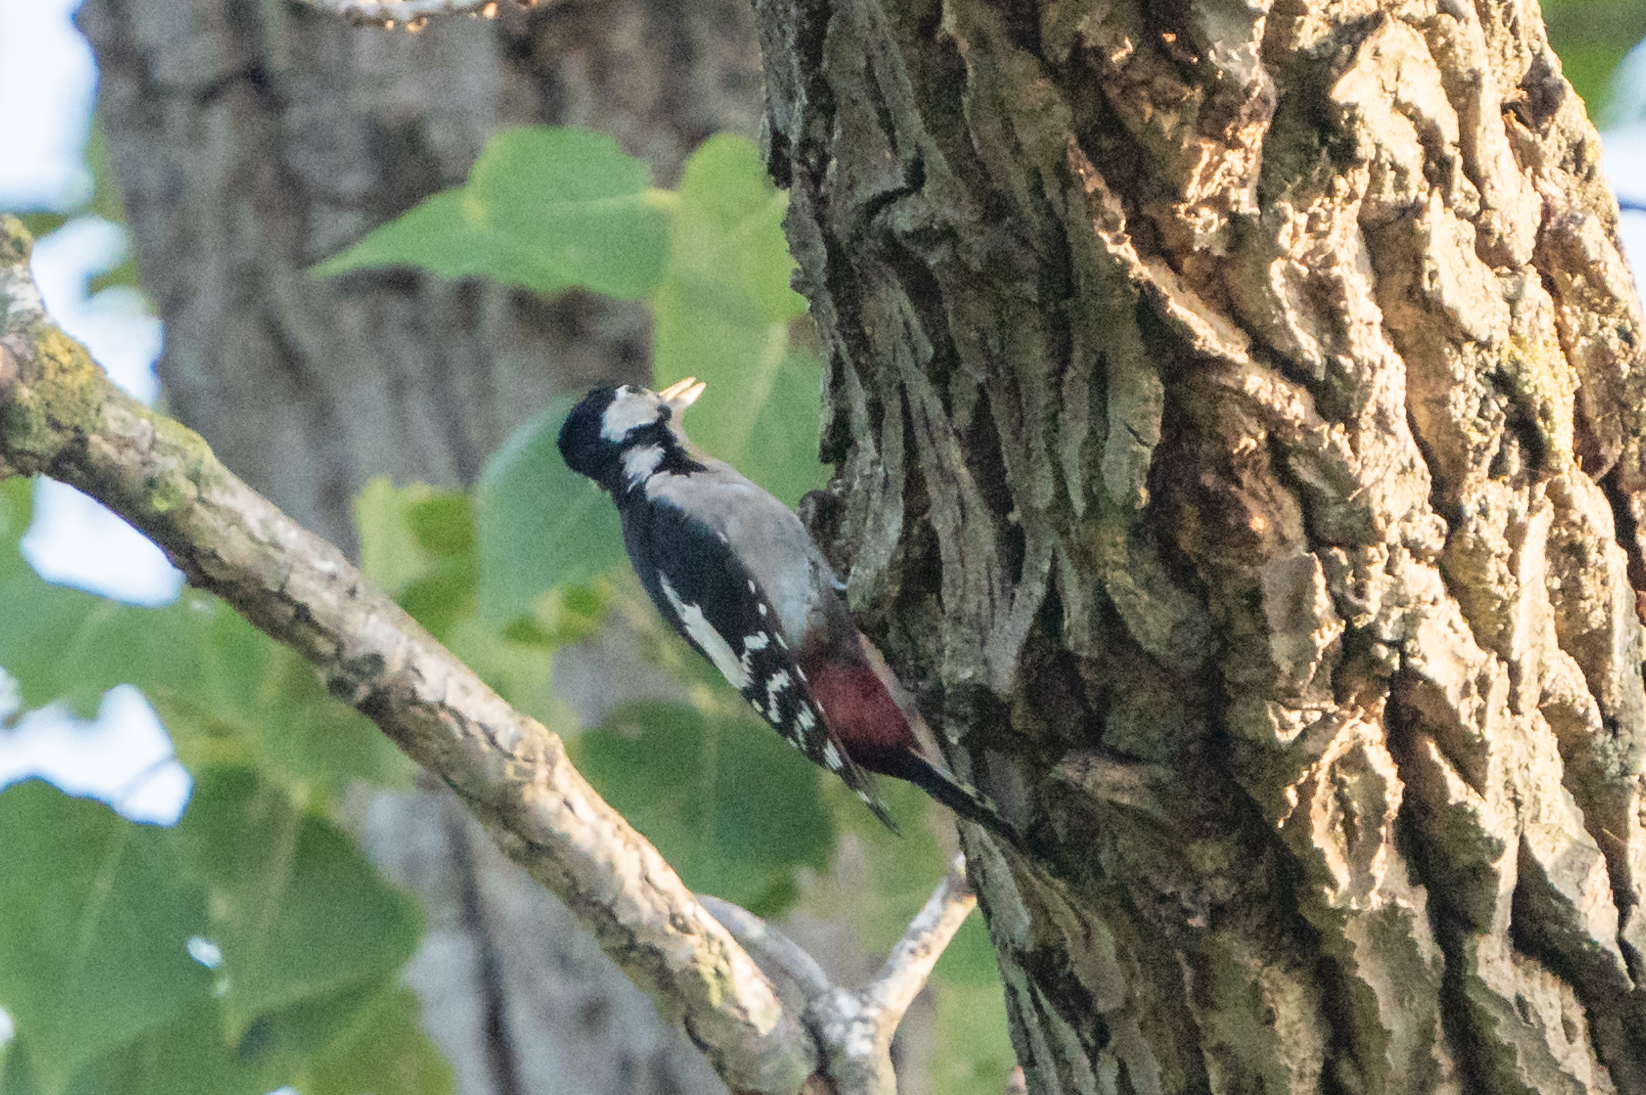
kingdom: Animalia
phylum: Chordata
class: Aves
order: Piciformes
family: Picidae
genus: Dendrocopos
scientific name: Dendrocopos major
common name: Great spotted woodpecker
